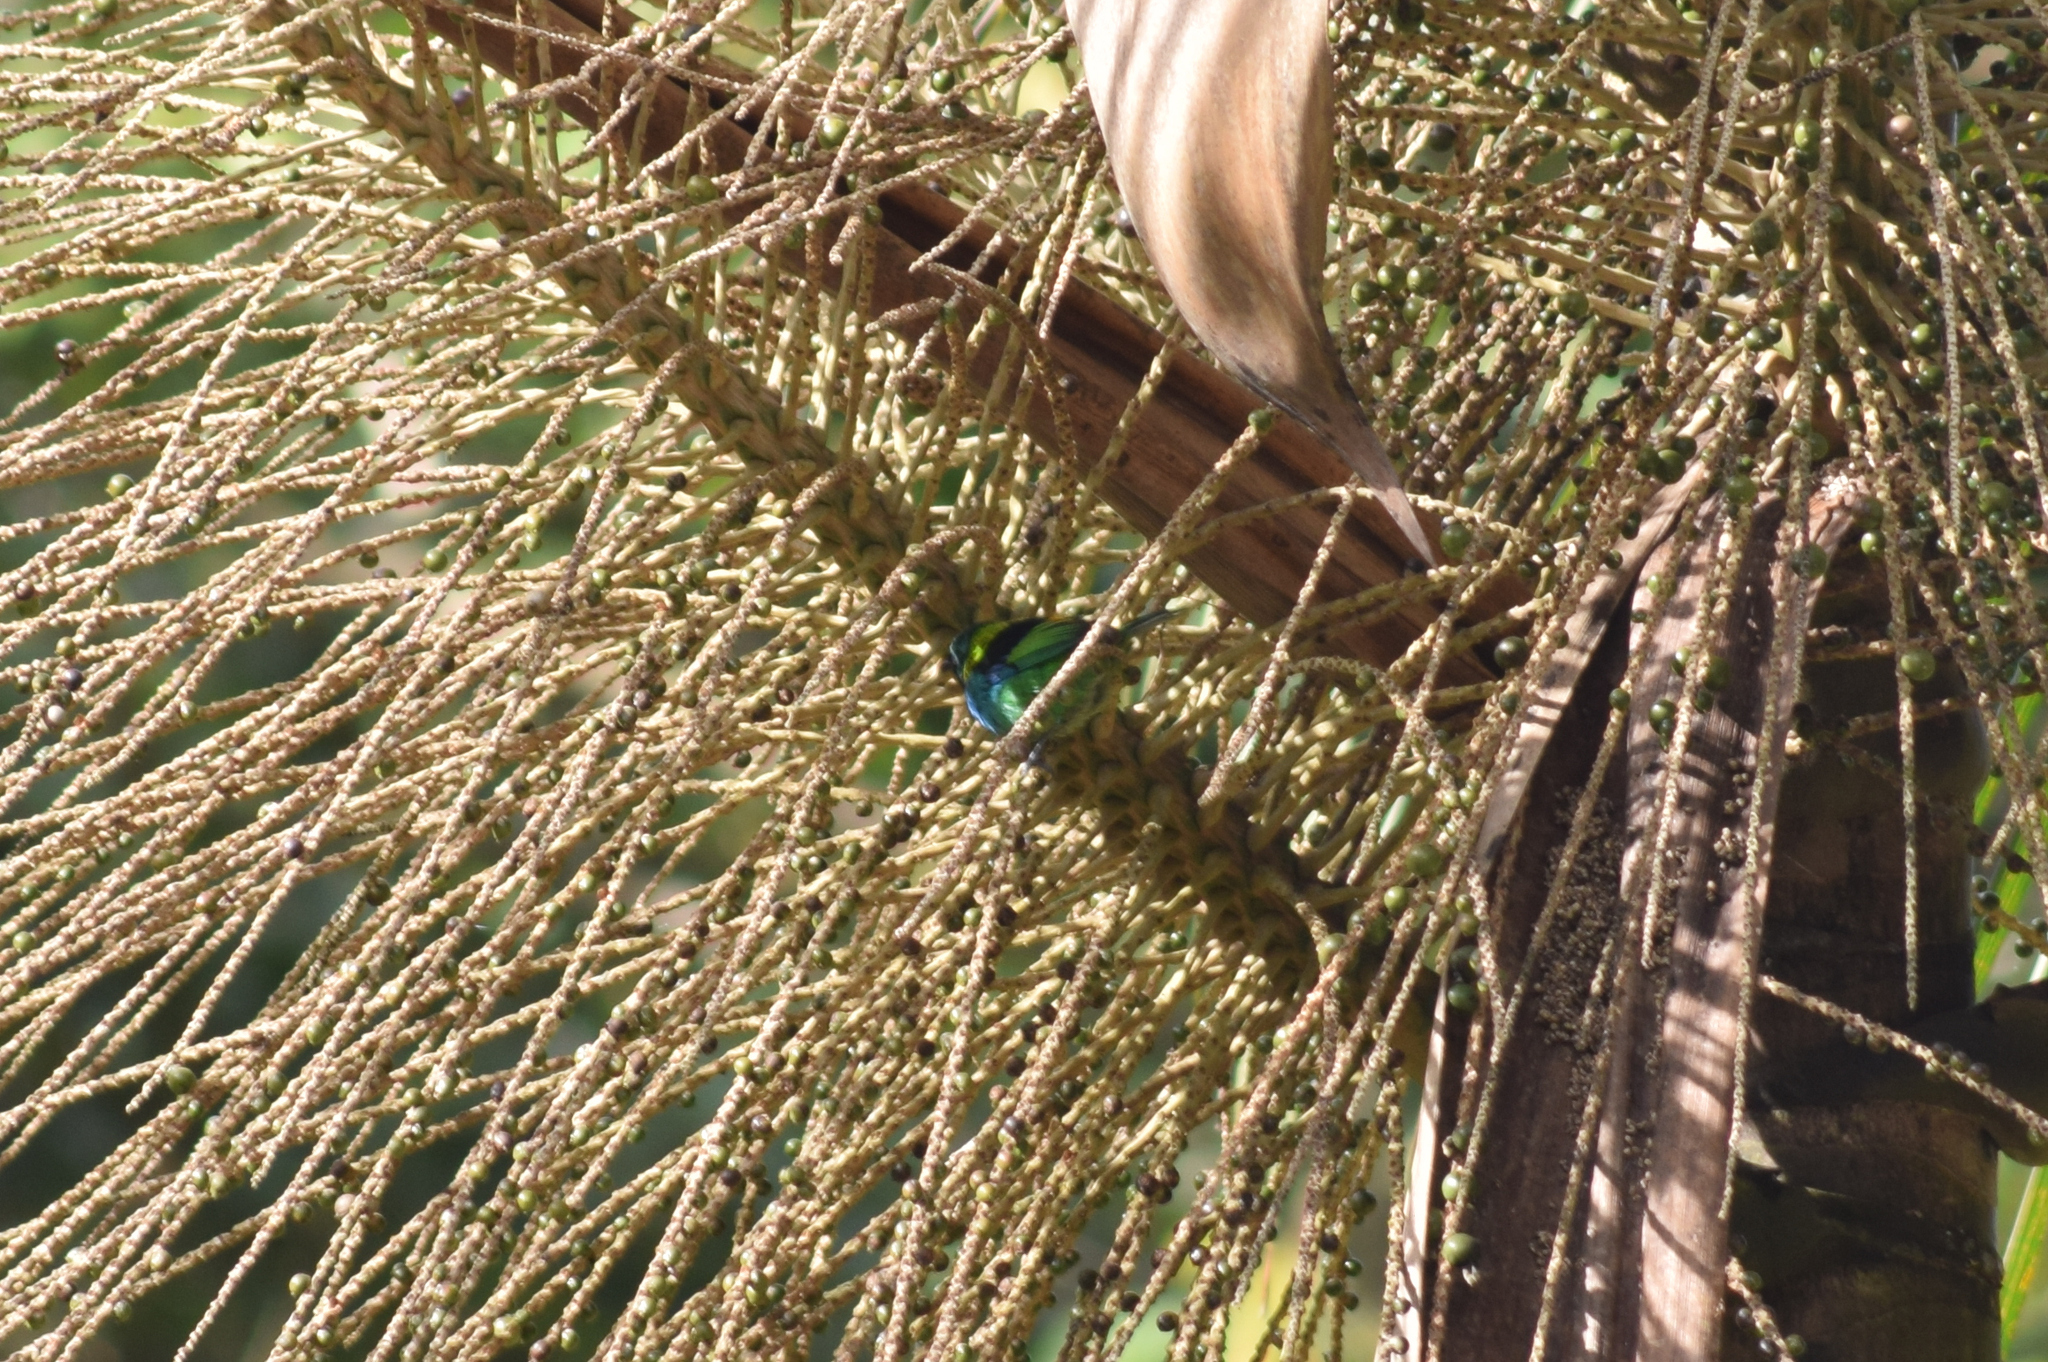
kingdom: Animalia
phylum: Chordata
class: Aves
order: Passeriformes
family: Thraupidae
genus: Tangara
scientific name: Tangara seledon
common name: Green-headed tanager
